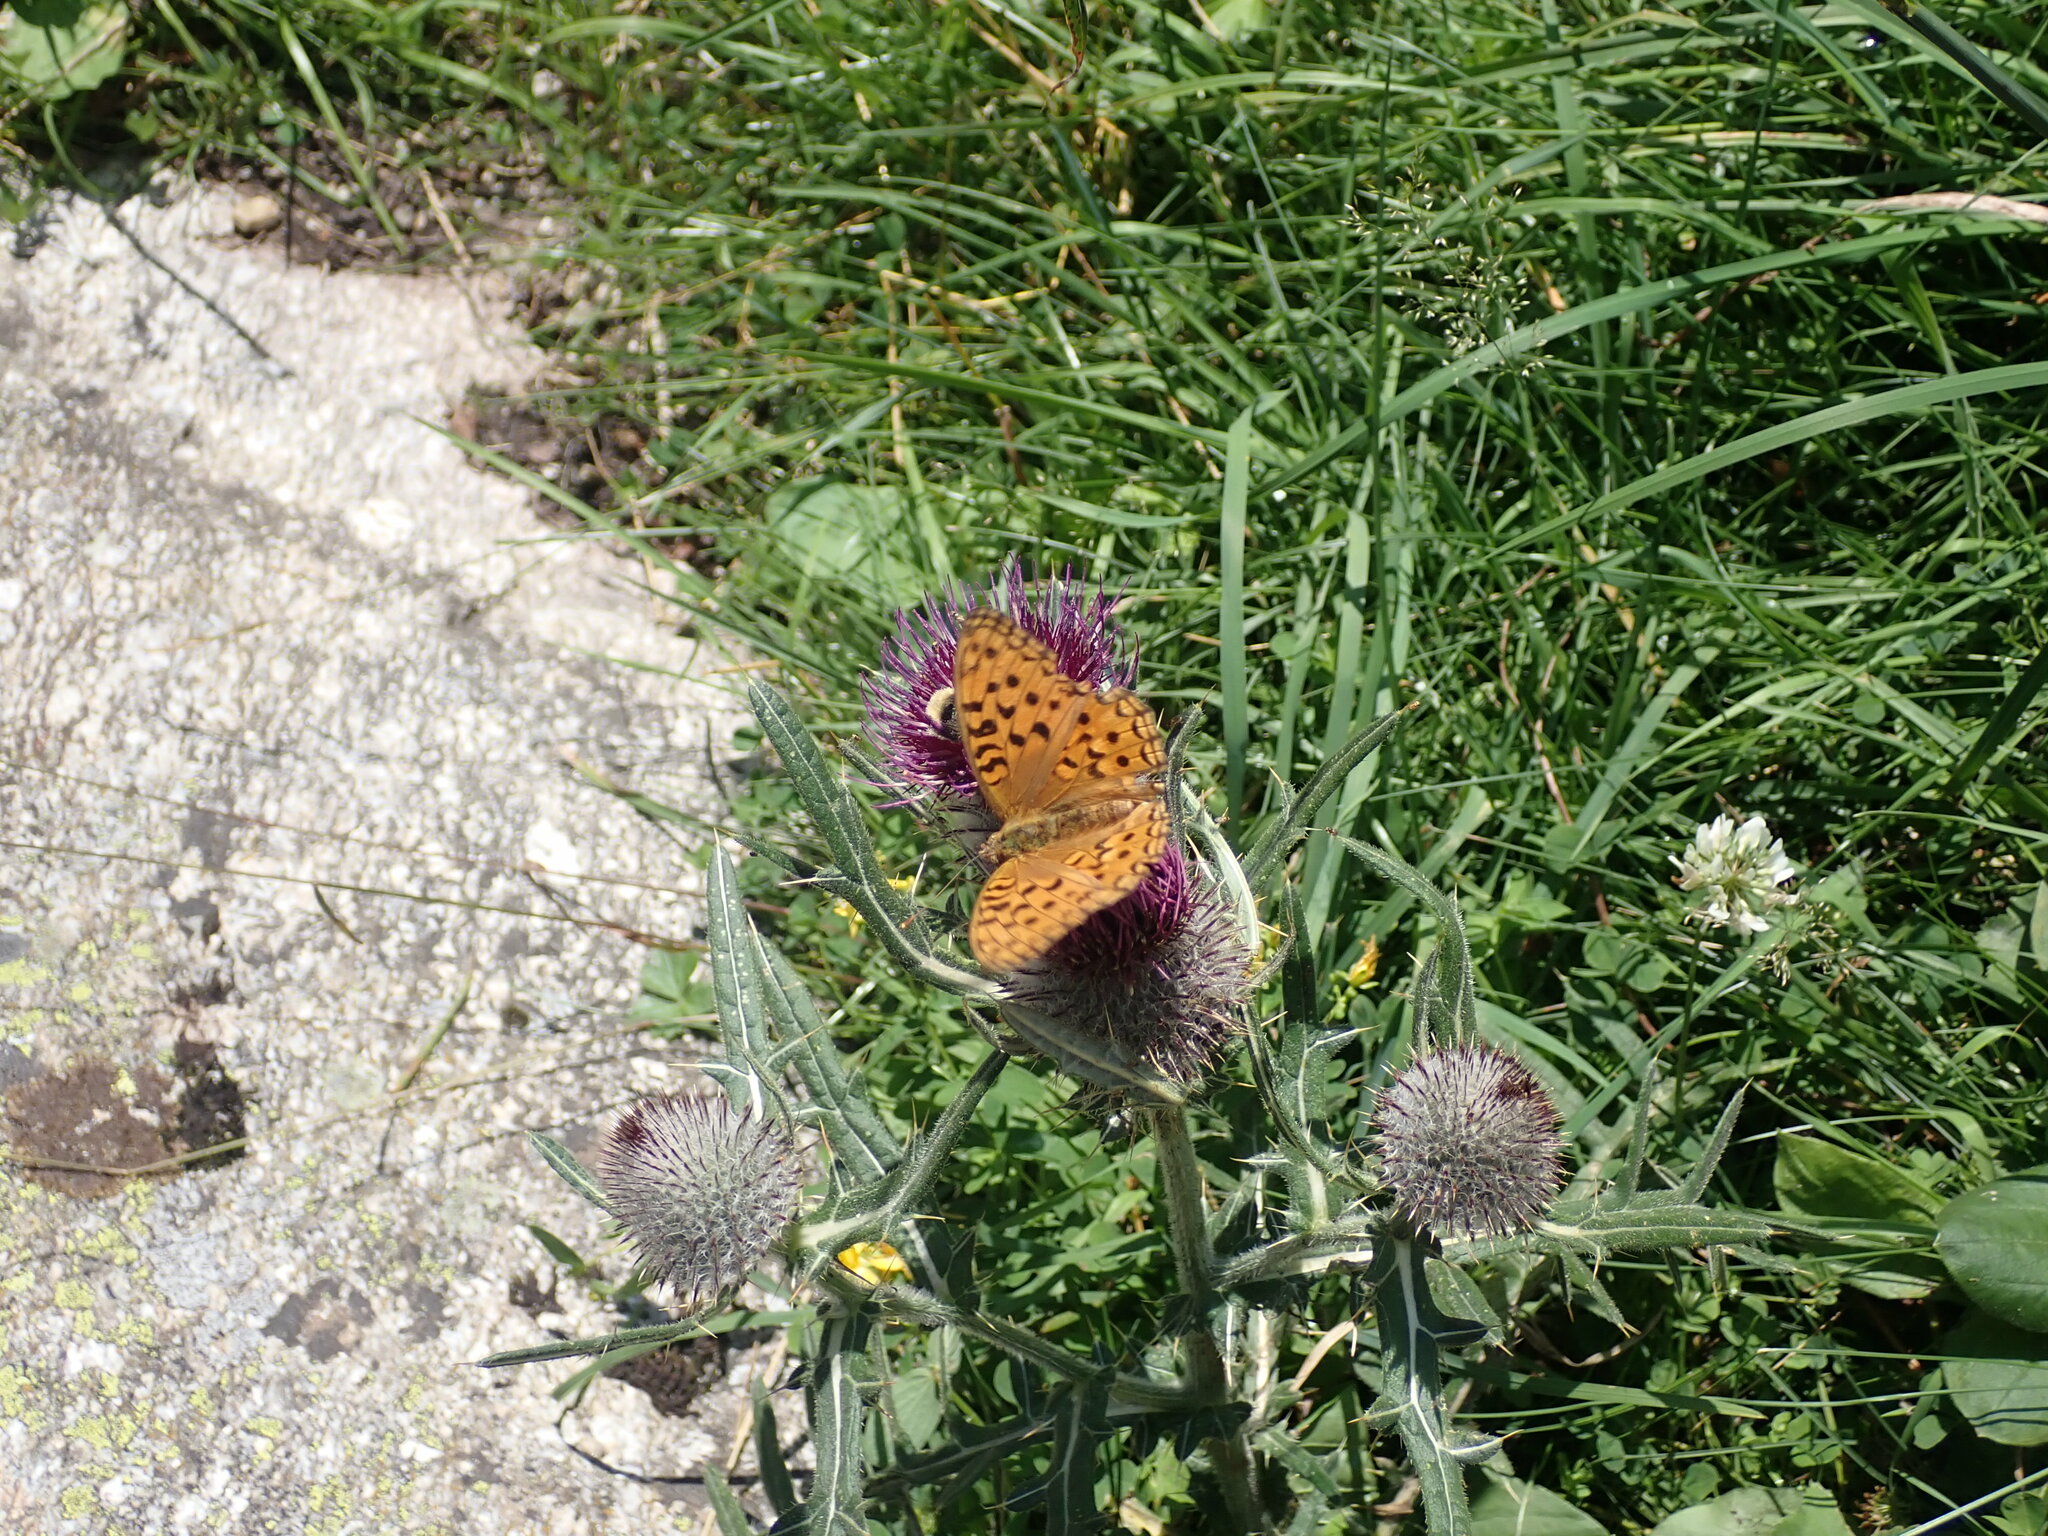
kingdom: Animalia
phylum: Arthropoda
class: Insecta
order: Lepidoptera
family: Nymphalidae
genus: Fabriciana
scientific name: Fabriciana adippe
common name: High brown fritillary
